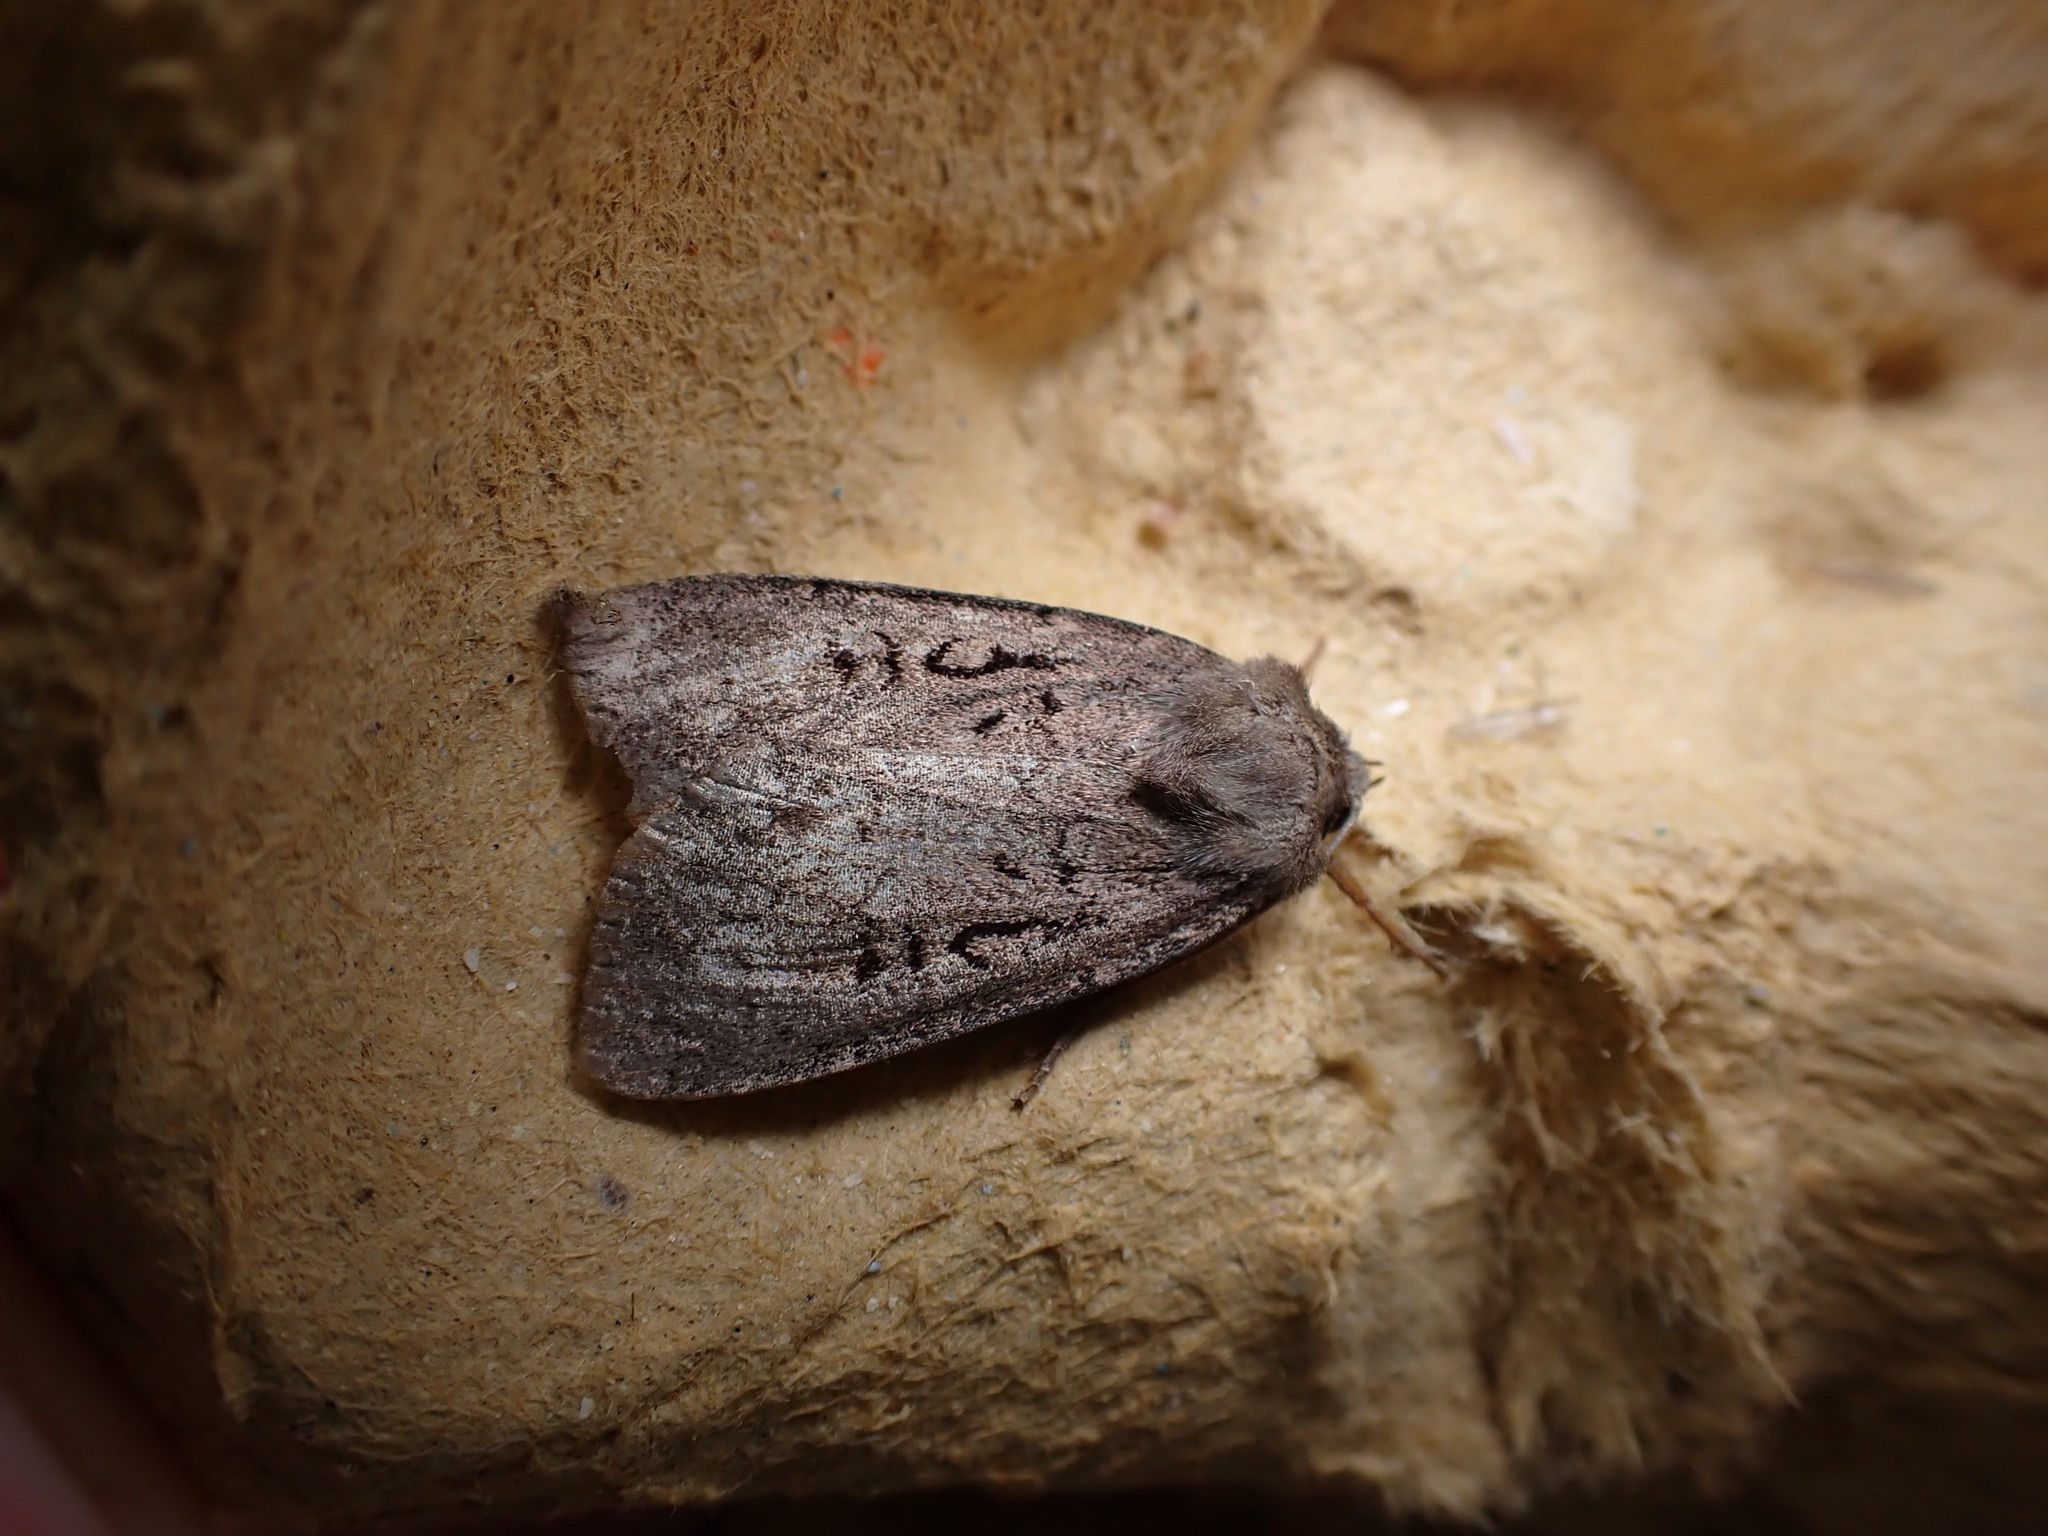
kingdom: Animalia
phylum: Arthropoda
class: Insecta
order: Lepidoptera
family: Noctuidae
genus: Graphiphora
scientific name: Graphiphora augur
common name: Double dart
